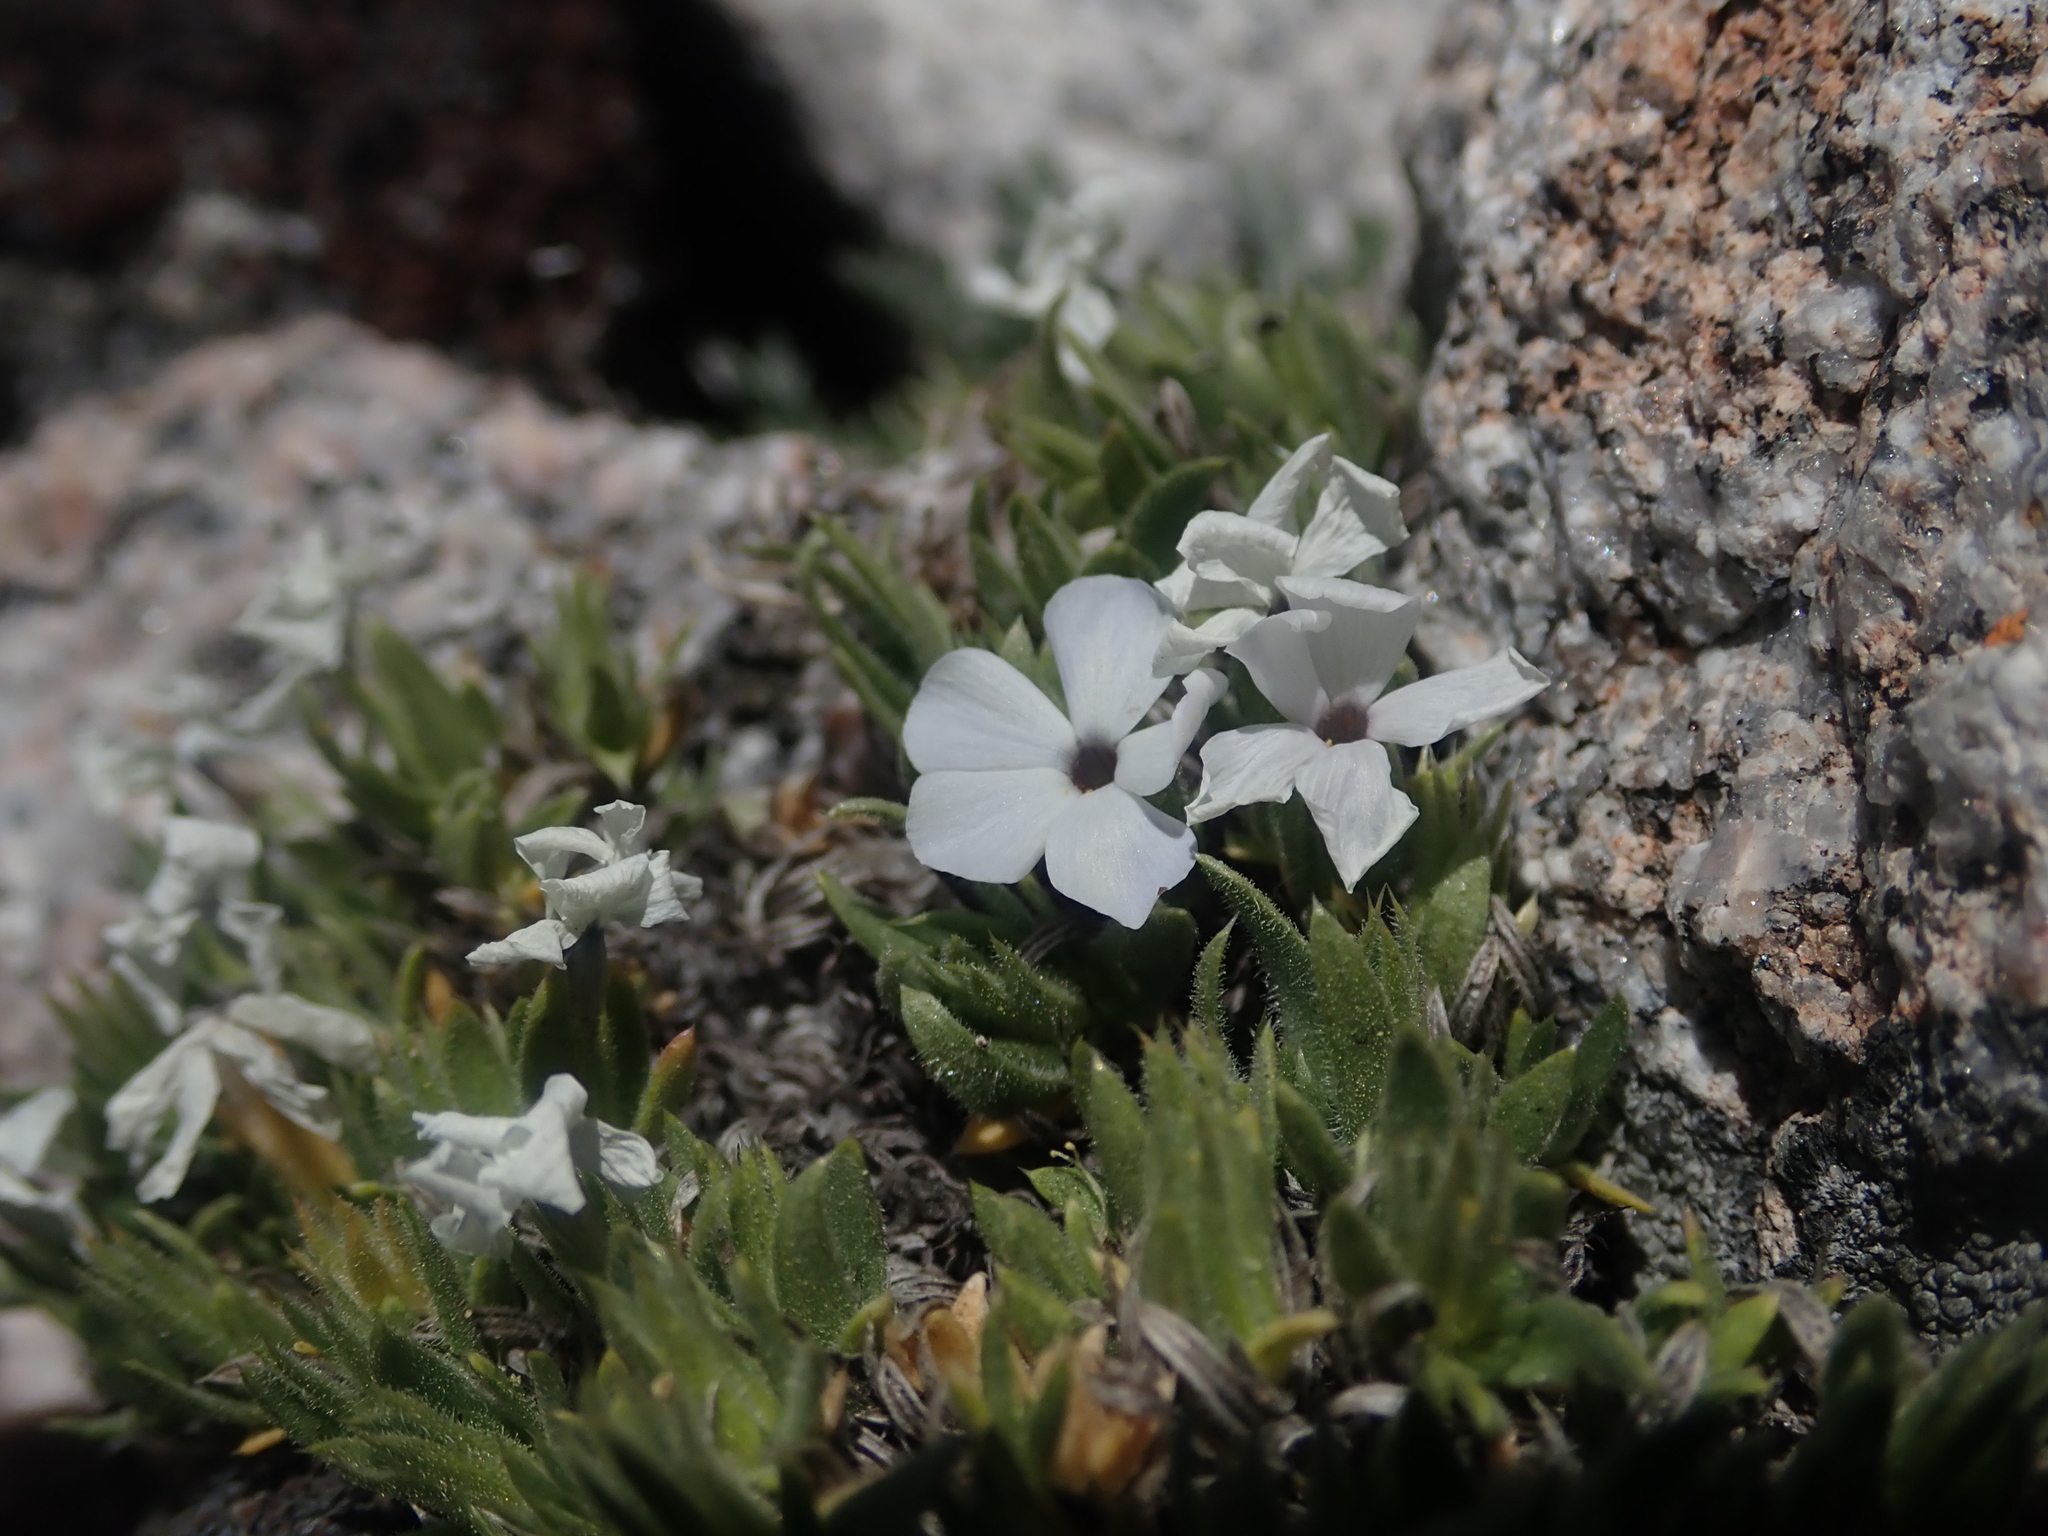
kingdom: Plantae
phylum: Tracheophyta
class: Magnoliopsida
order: Ericales
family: Polemoniaceae
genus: Phlox
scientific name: Phlox pulvinata
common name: Cushion phlox
